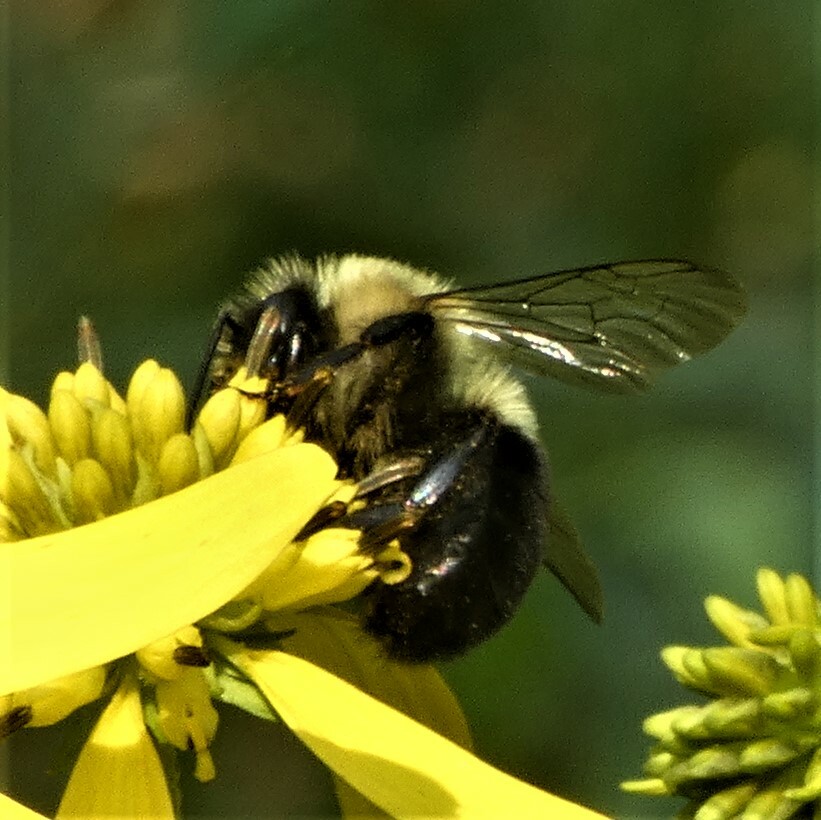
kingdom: Animalia
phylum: Arthropoda
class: Insecta
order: Hymenoptera
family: Apidae
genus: Bombus
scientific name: Bombus impatiens
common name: Common eastern bumble bee
